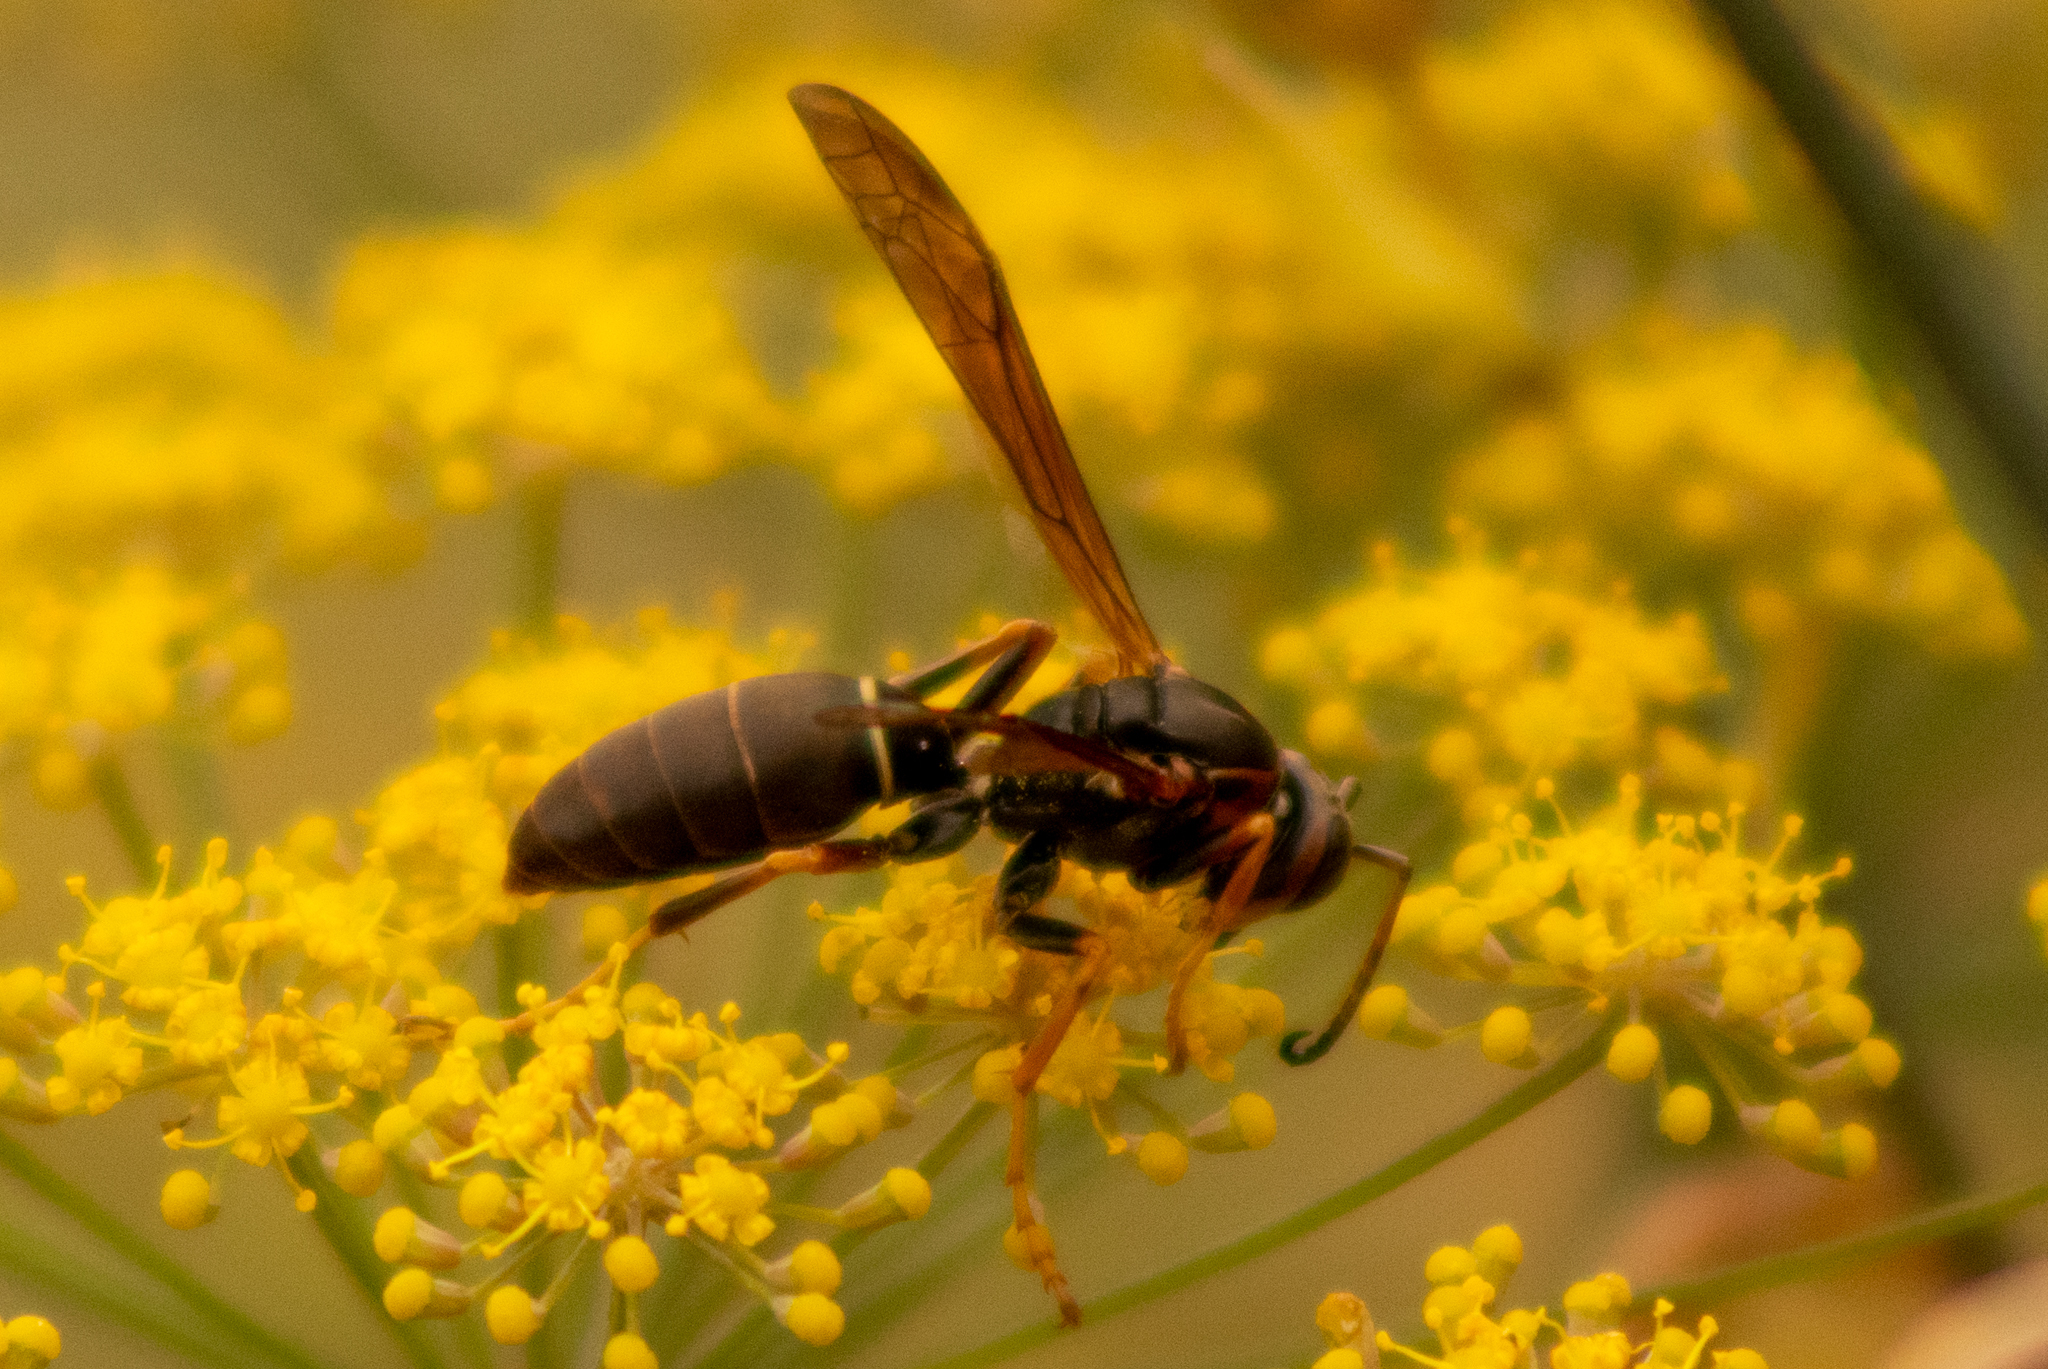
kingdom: Animalia
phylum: Arthropoda
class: Insecta
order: Hymenoptera
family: Eumenidae
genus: Polistes
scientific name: Polistes fuscatus
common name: Dark paper wasp
